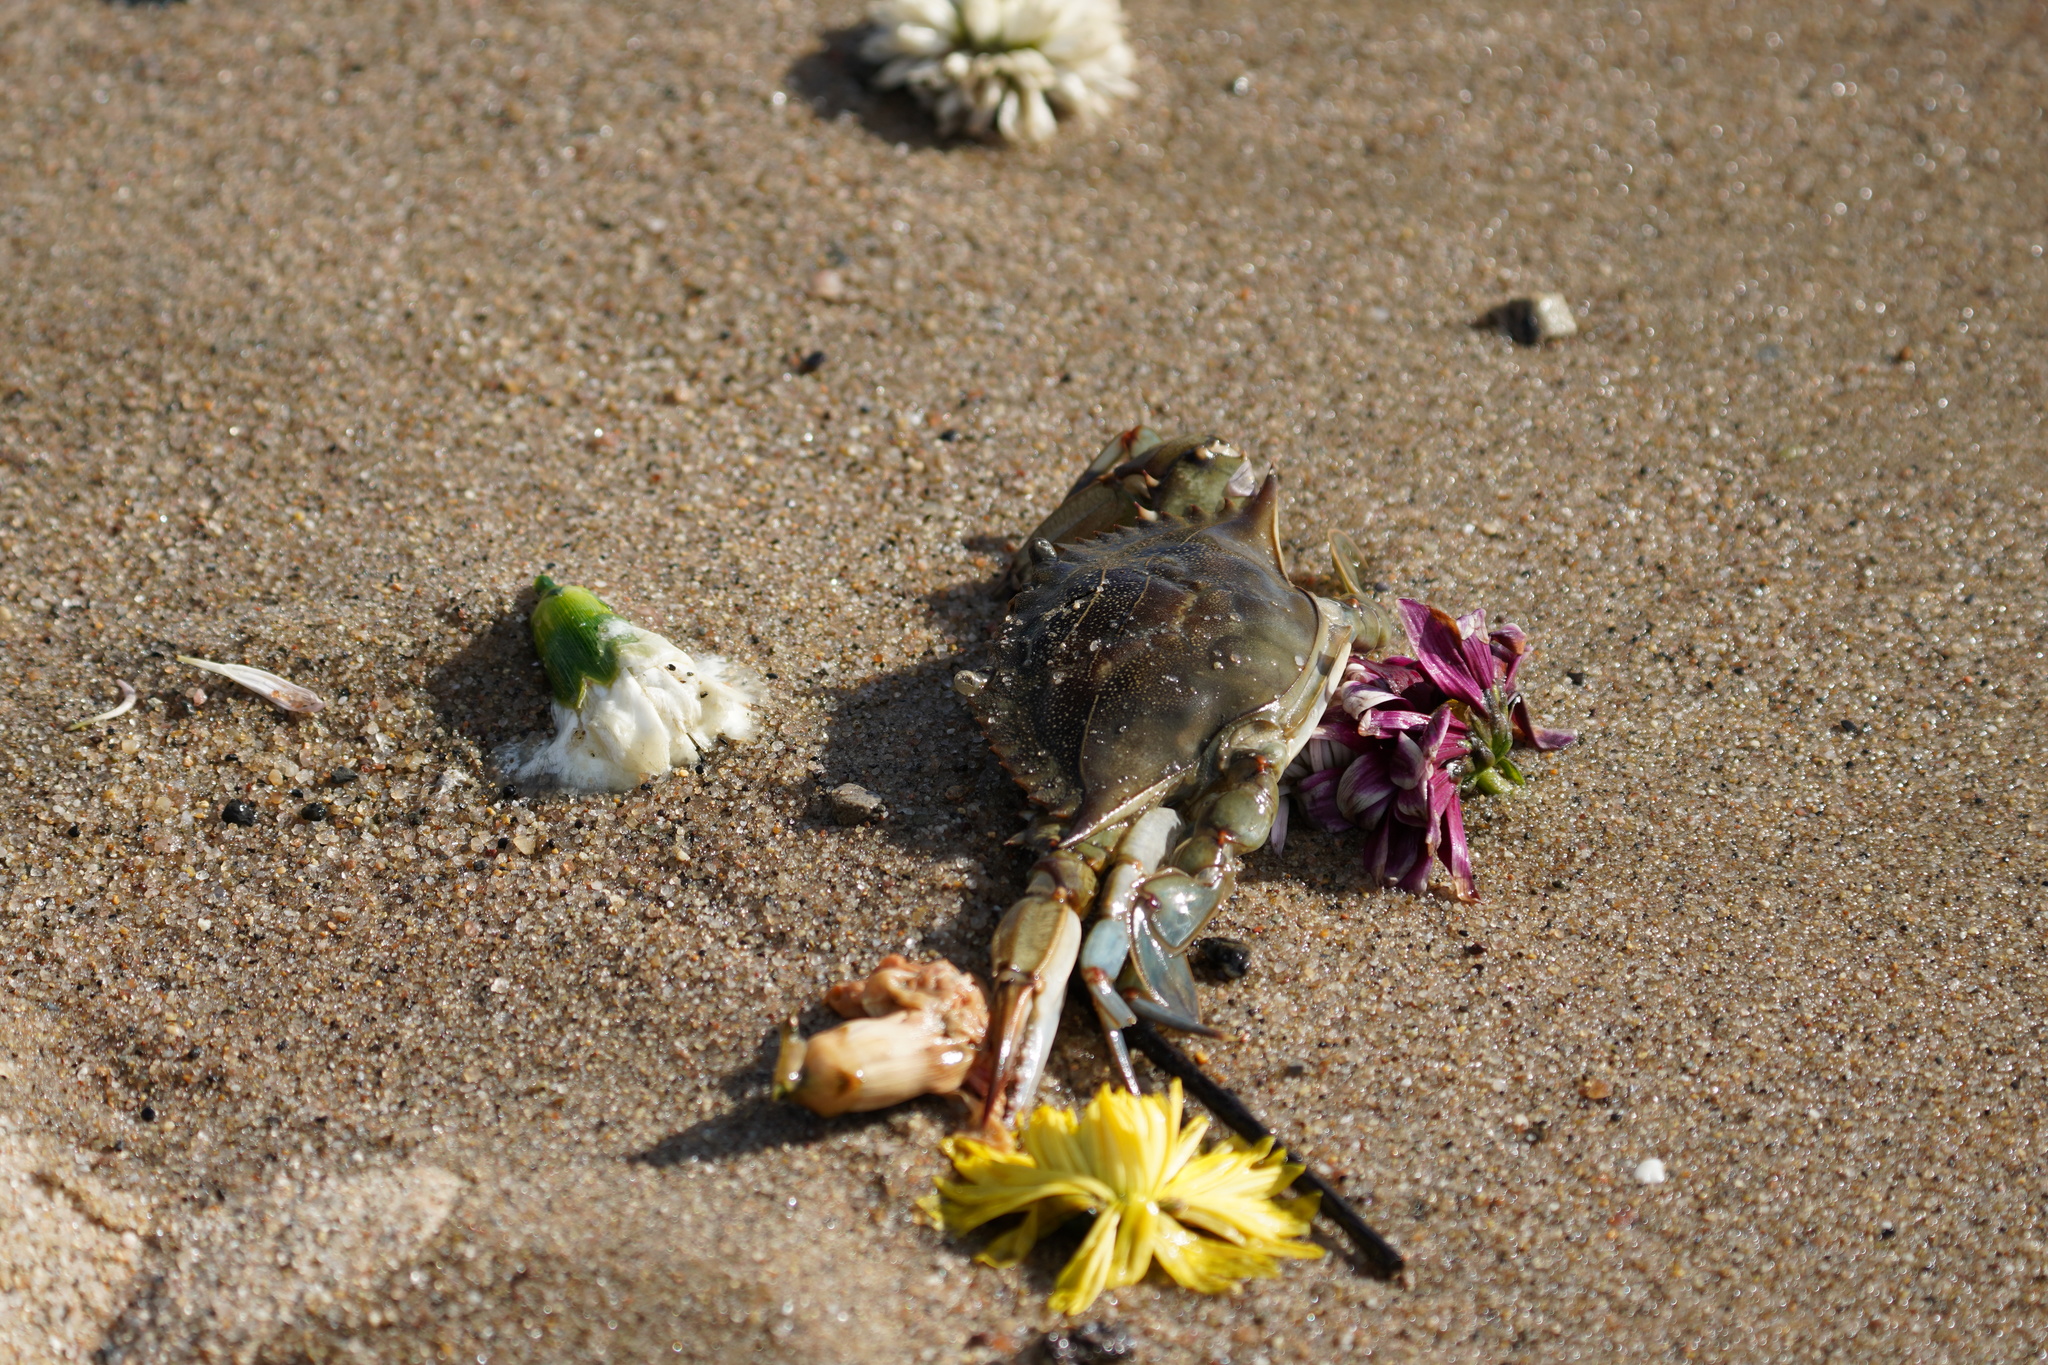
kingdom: Animalia
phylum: Arthropoda
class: Malacostraca
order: Decapoda
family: Portunidae
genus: Callinectes
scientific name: Callinectes sapidus
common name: Blue crab
